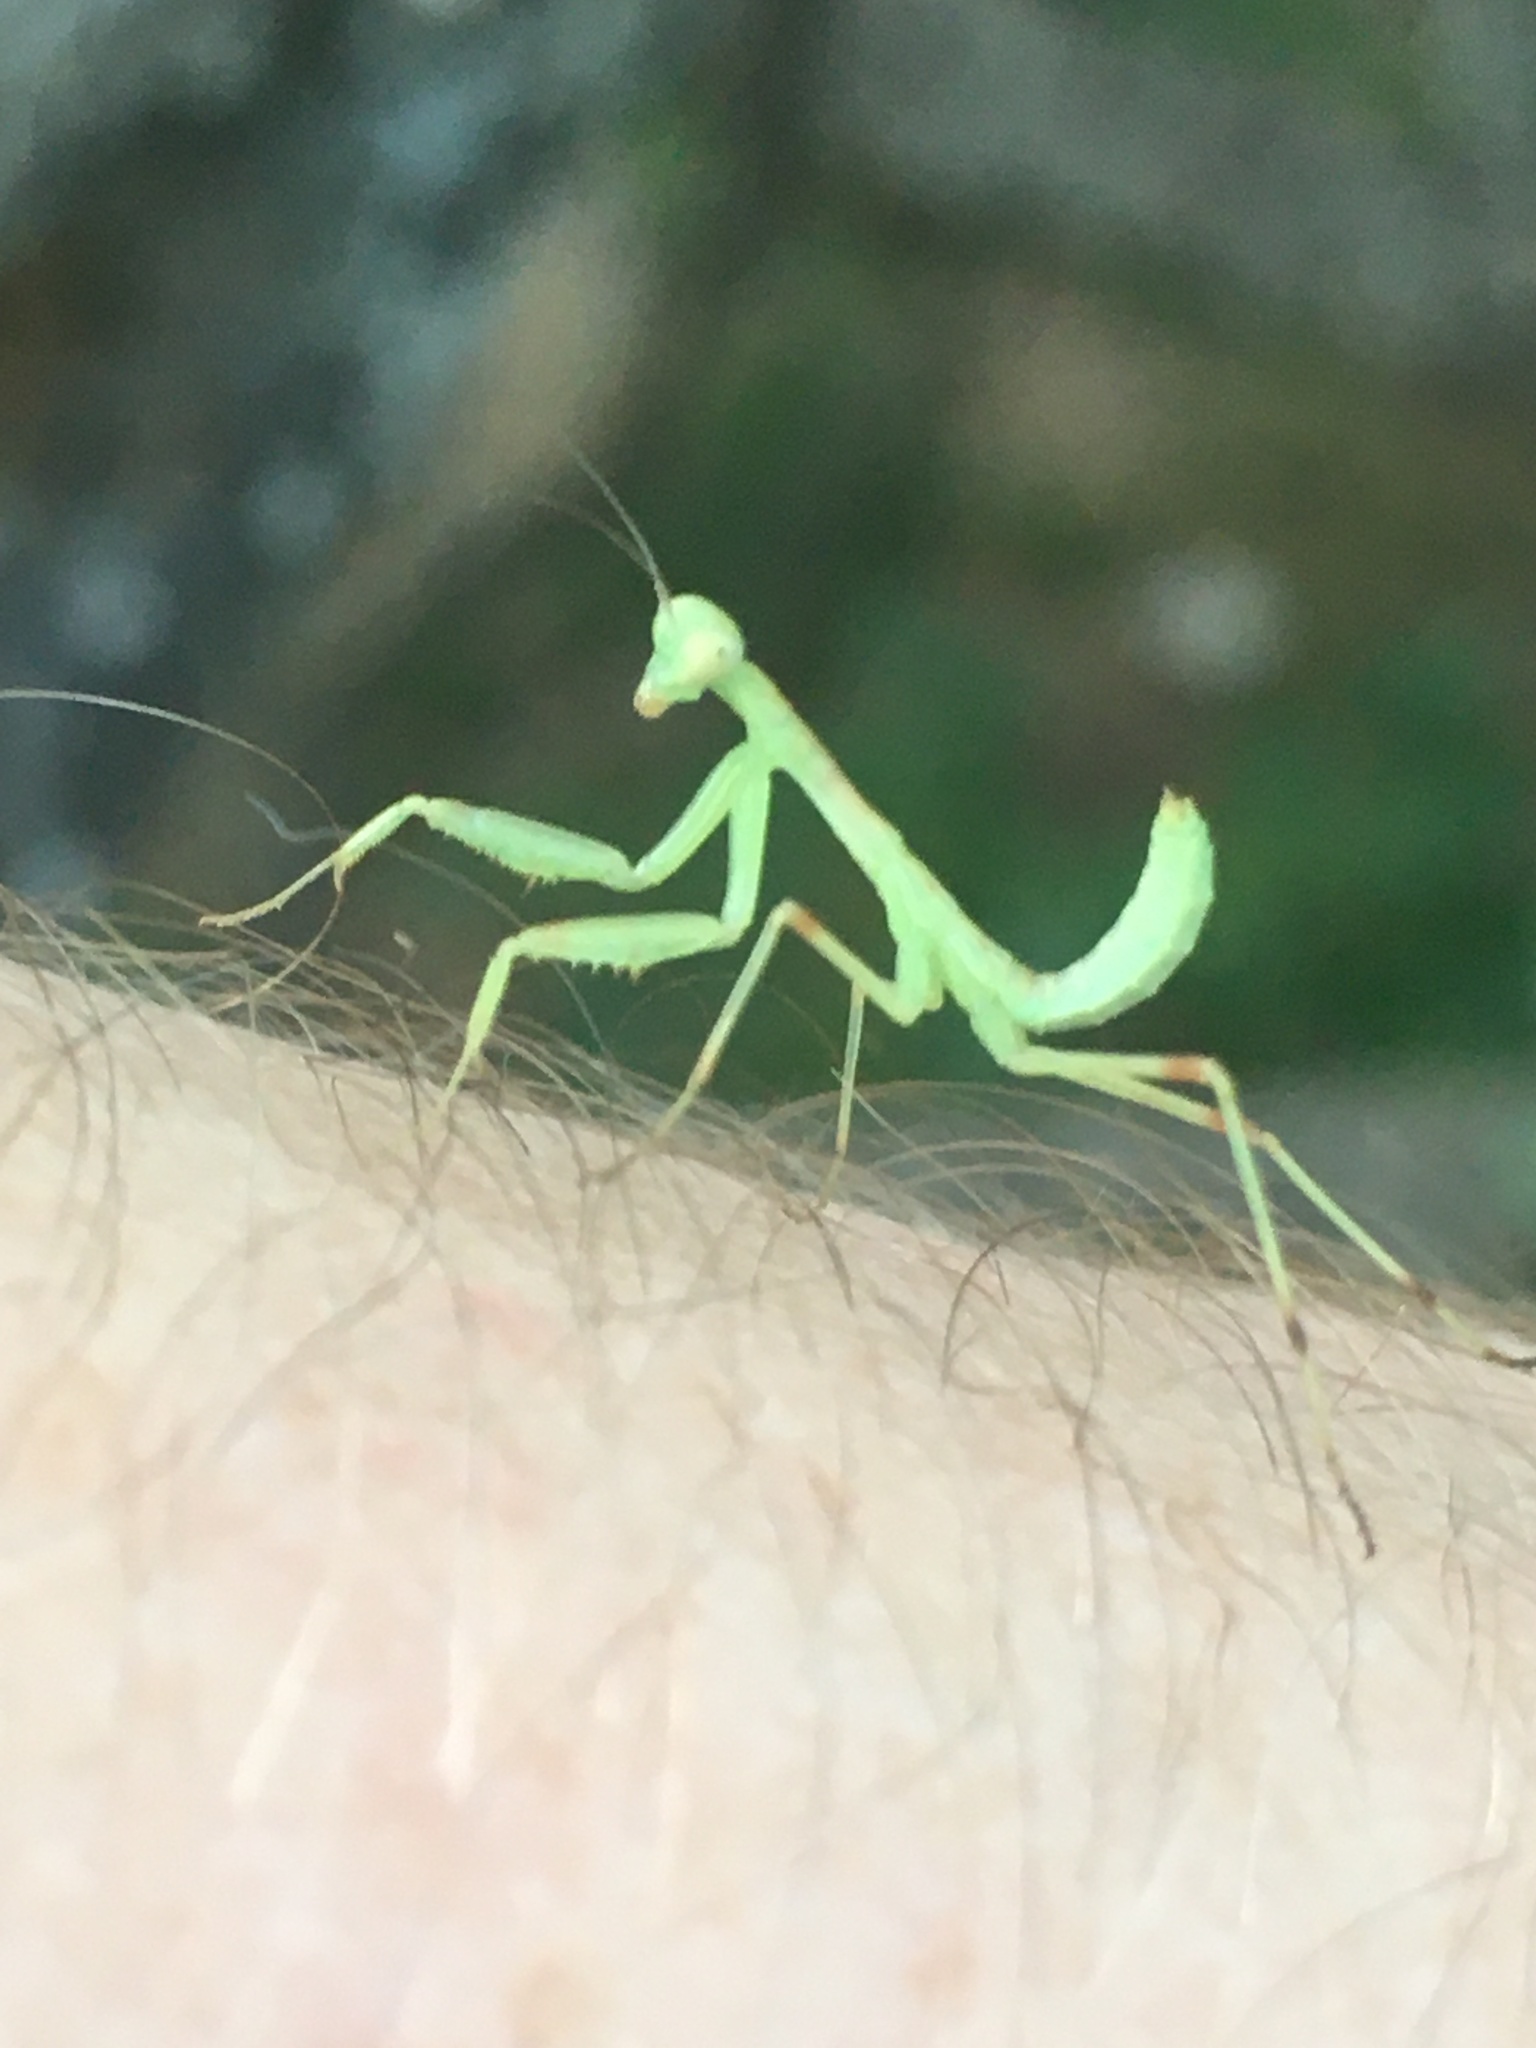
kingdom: Animalia
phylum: Arthropoda
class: Insecta
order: Mantodea
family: Mantidae
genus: Hierodula
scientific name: Hierodula transcaucasica
